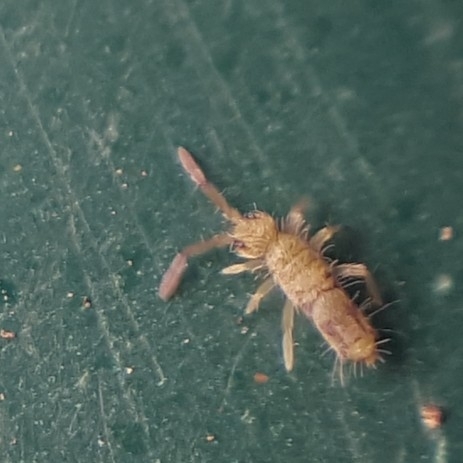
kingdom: Animalia
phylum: Arthropoda
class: Collembola
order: Entomobryomorpha
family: Entomobryidae
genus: Entomobrya
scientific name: Entomobrya nivalis
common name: Cosmopolitan springtail
